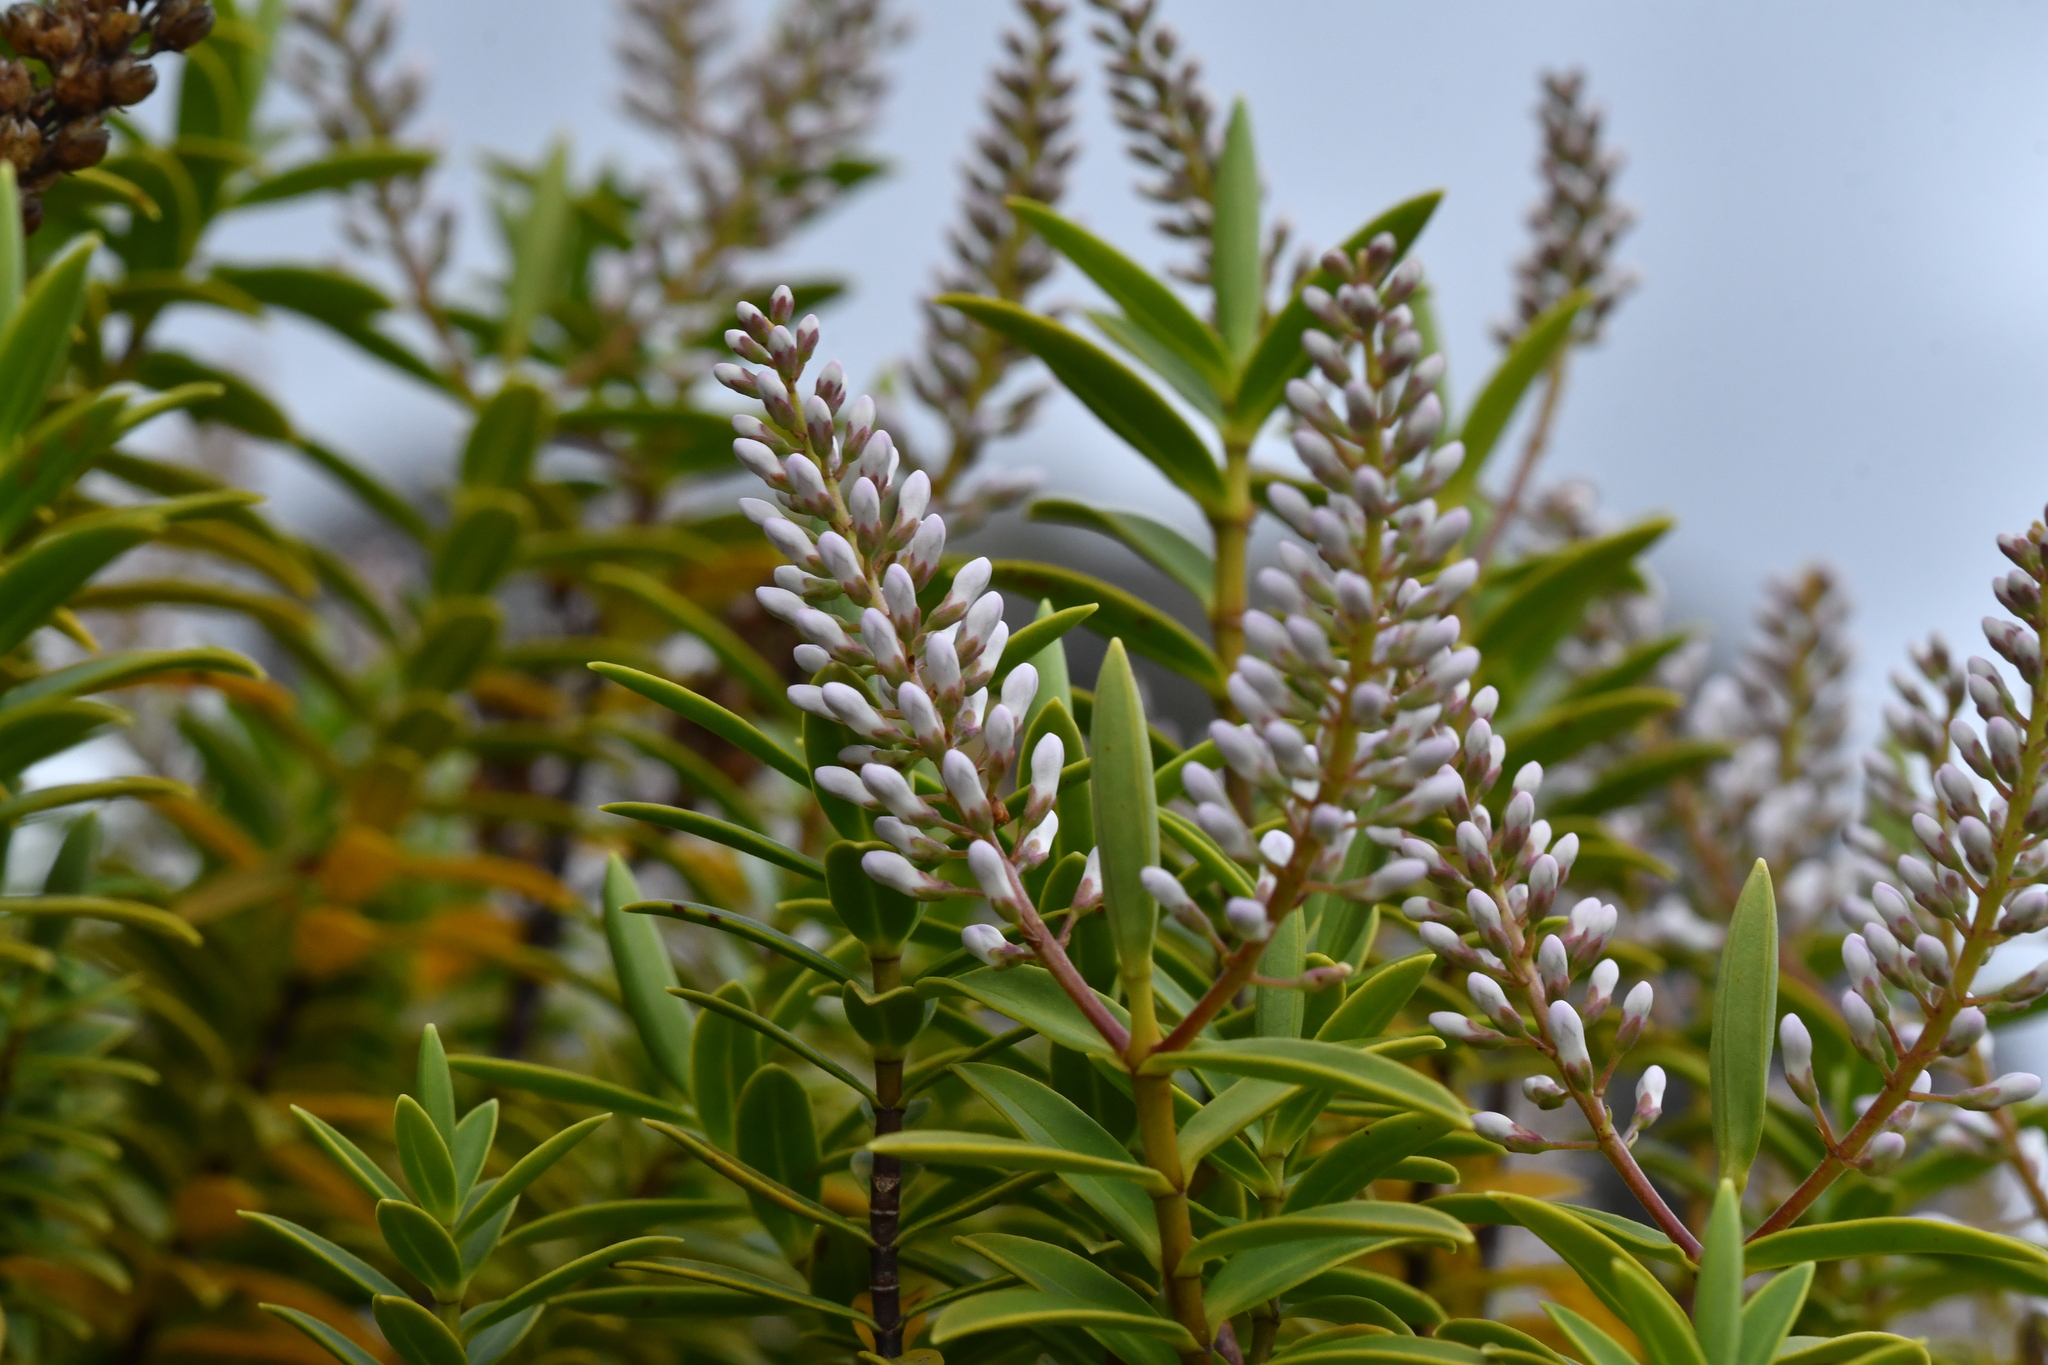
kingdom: Plantae
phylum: Tracheophyta
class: Magnoliopsida
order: Lamiales
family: Plantaginaceae
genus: Veronica
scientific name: Veronica rakaiensis
